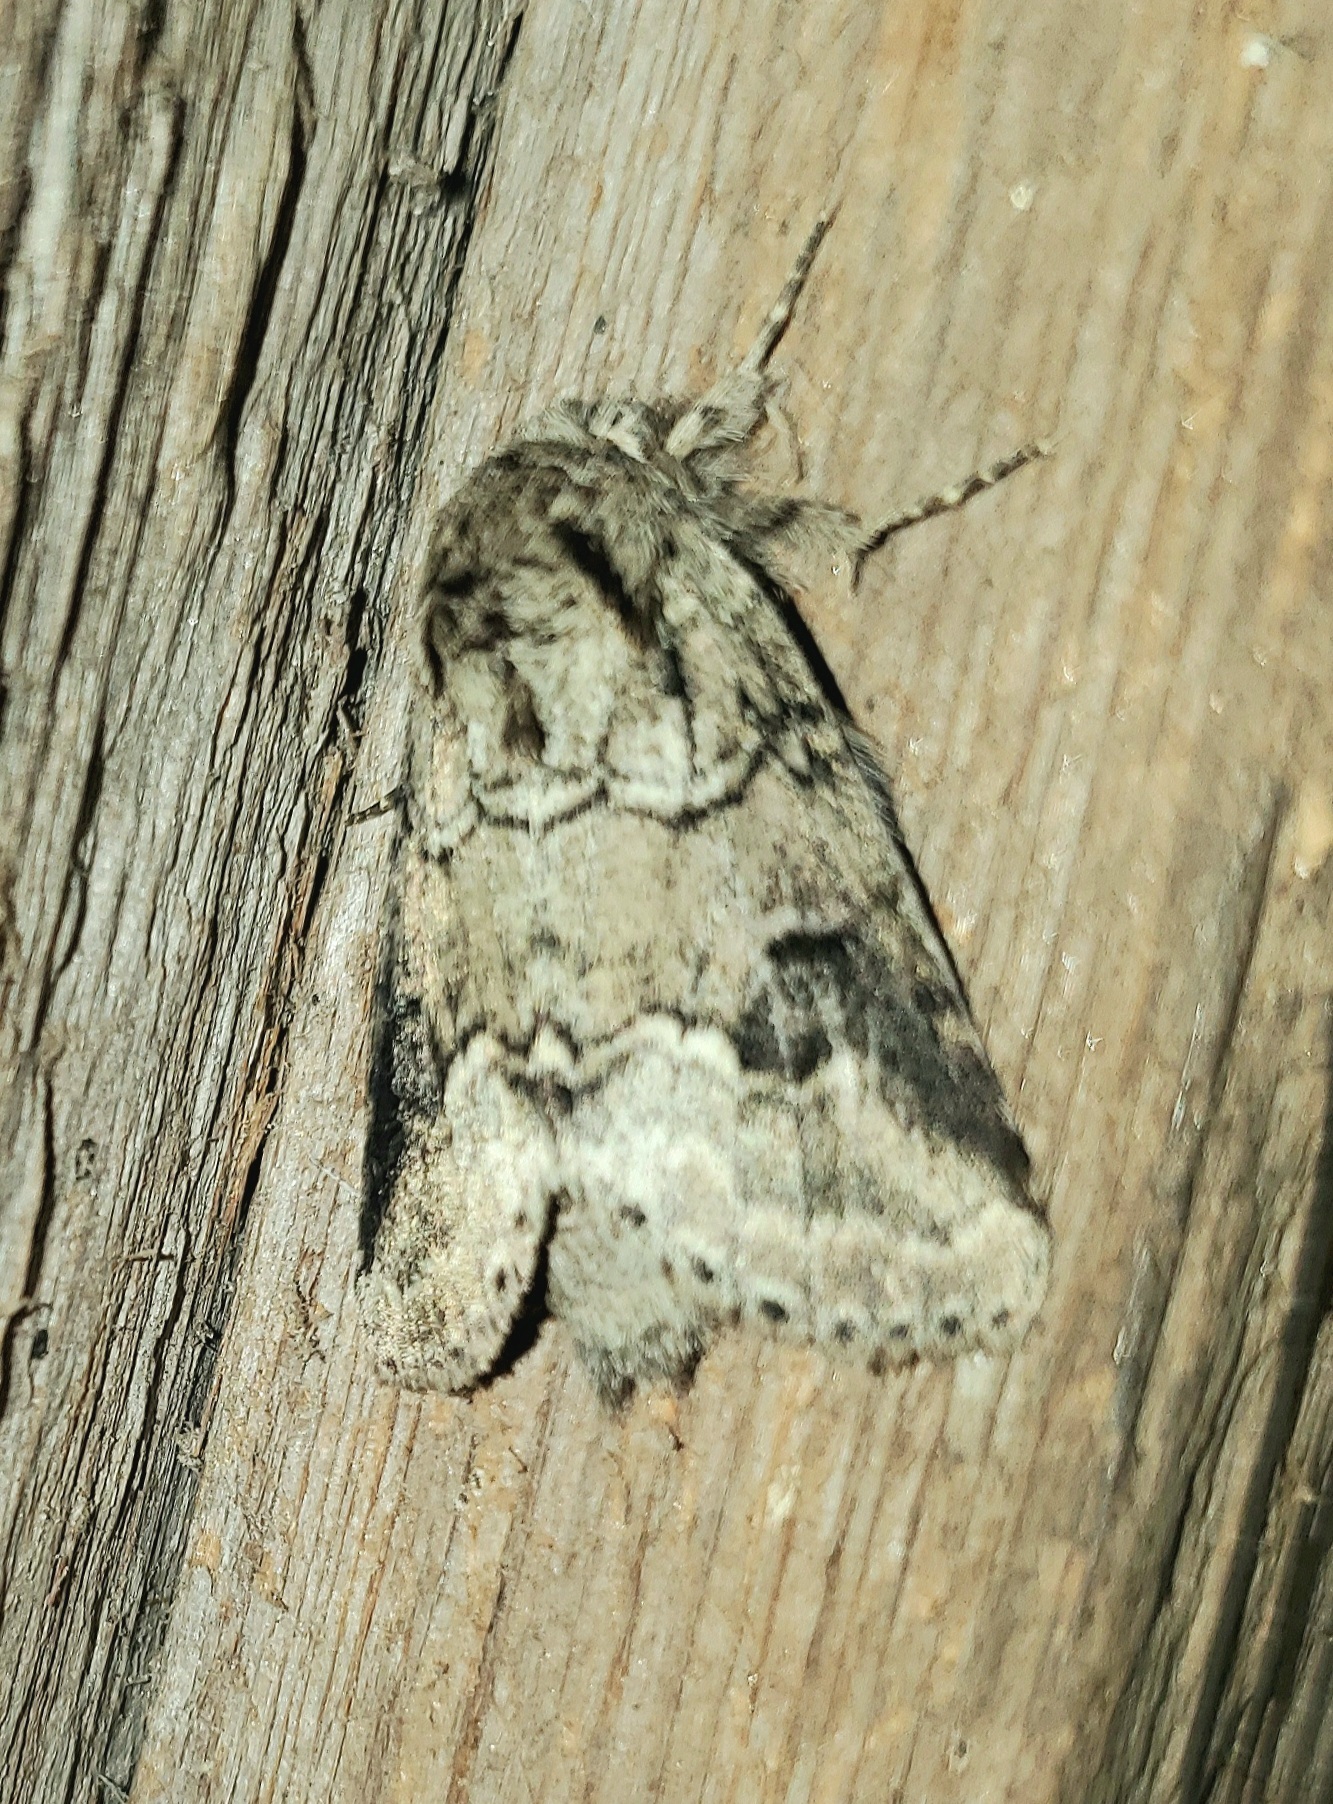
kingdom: Animalia
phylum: Arthropoda
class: Insecta
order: Lepidoptera
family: Notodontidae
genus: Lochmaeus
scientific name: Lochmaeus bilineata
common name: Double-lined prominent
